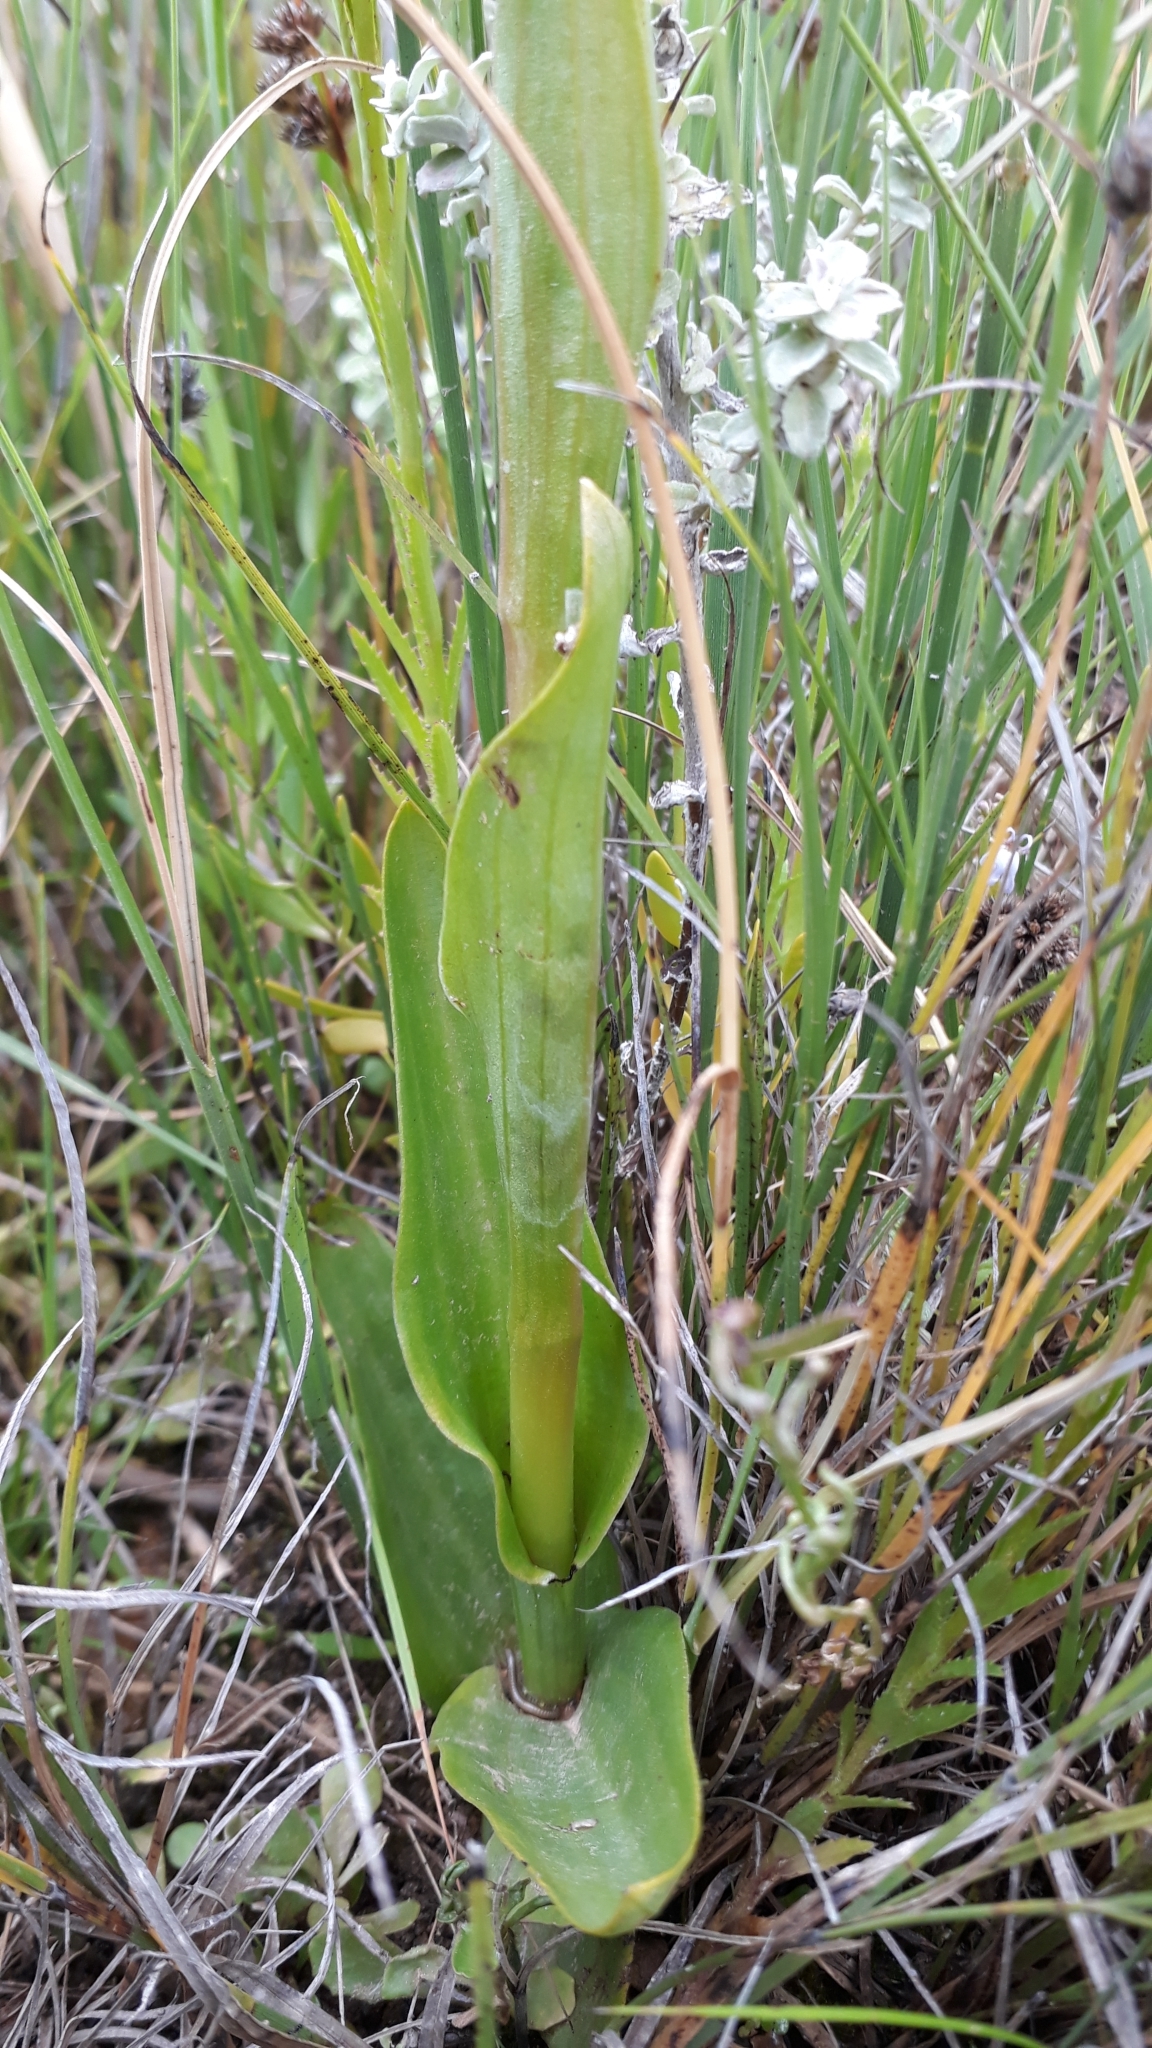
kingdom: Plantae
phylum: Tracheophyta
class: Liliopsida
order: Asparagales
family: Orchidaceae
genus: Satyrium
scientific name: Satyrium hallackii
